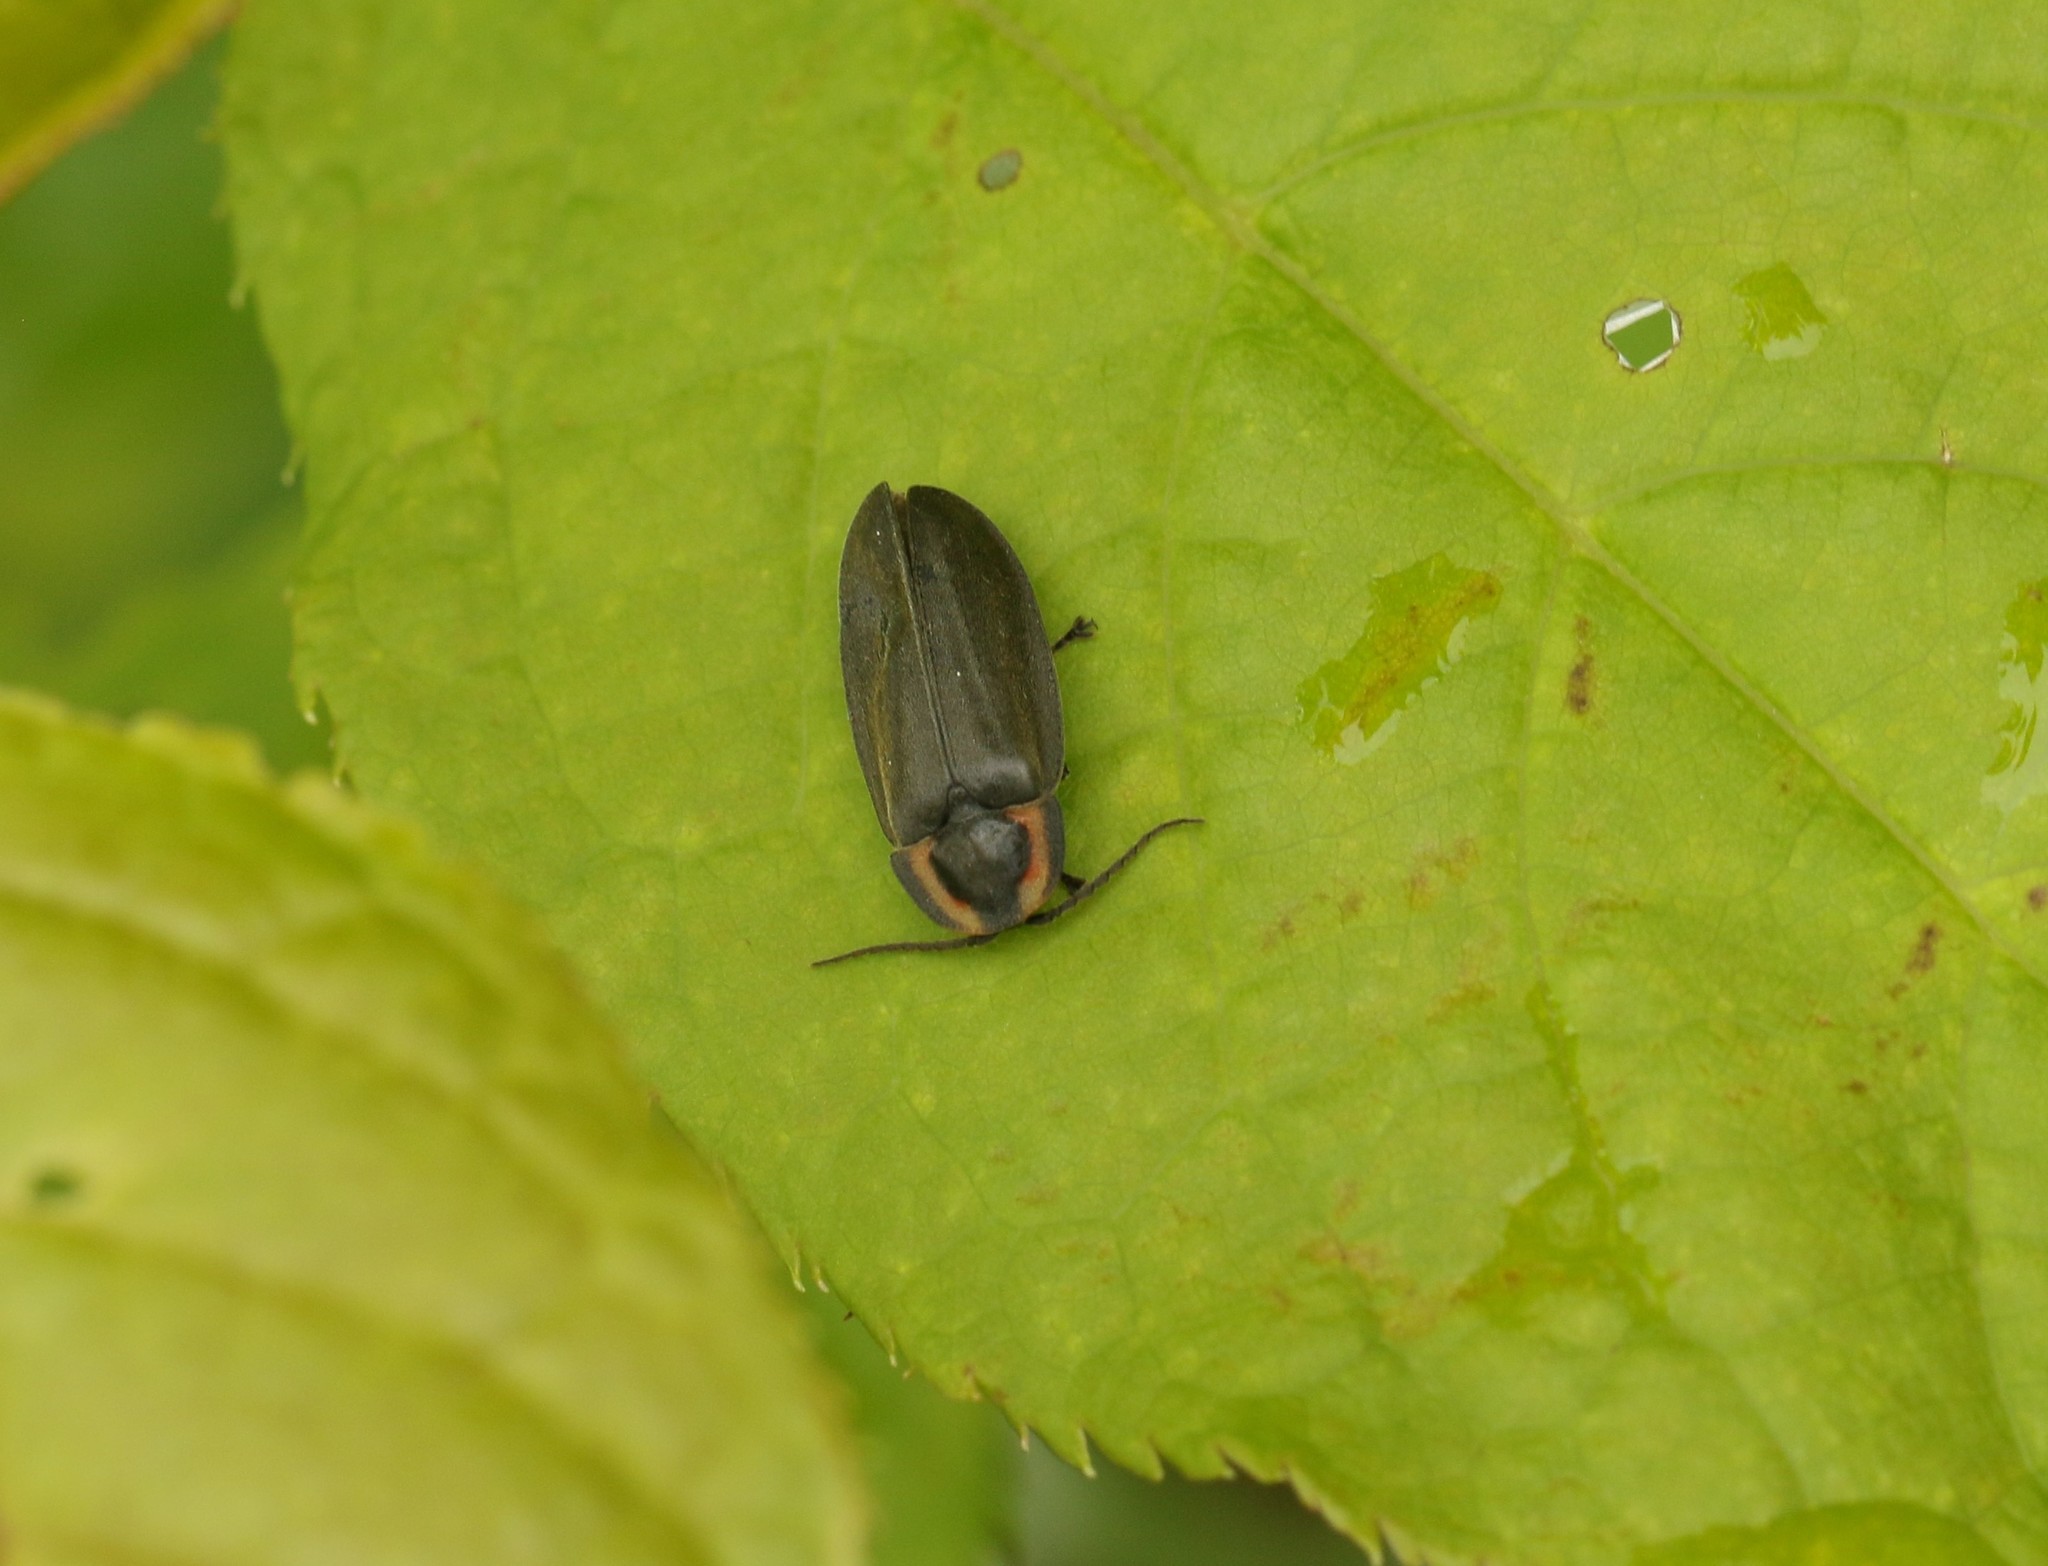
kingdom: Animalia
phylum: Arthropoda
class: Insecta
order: Coleoptera
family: Lampyridae
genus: Photinus
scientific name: Photinus corrusca
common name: Winter firefly
